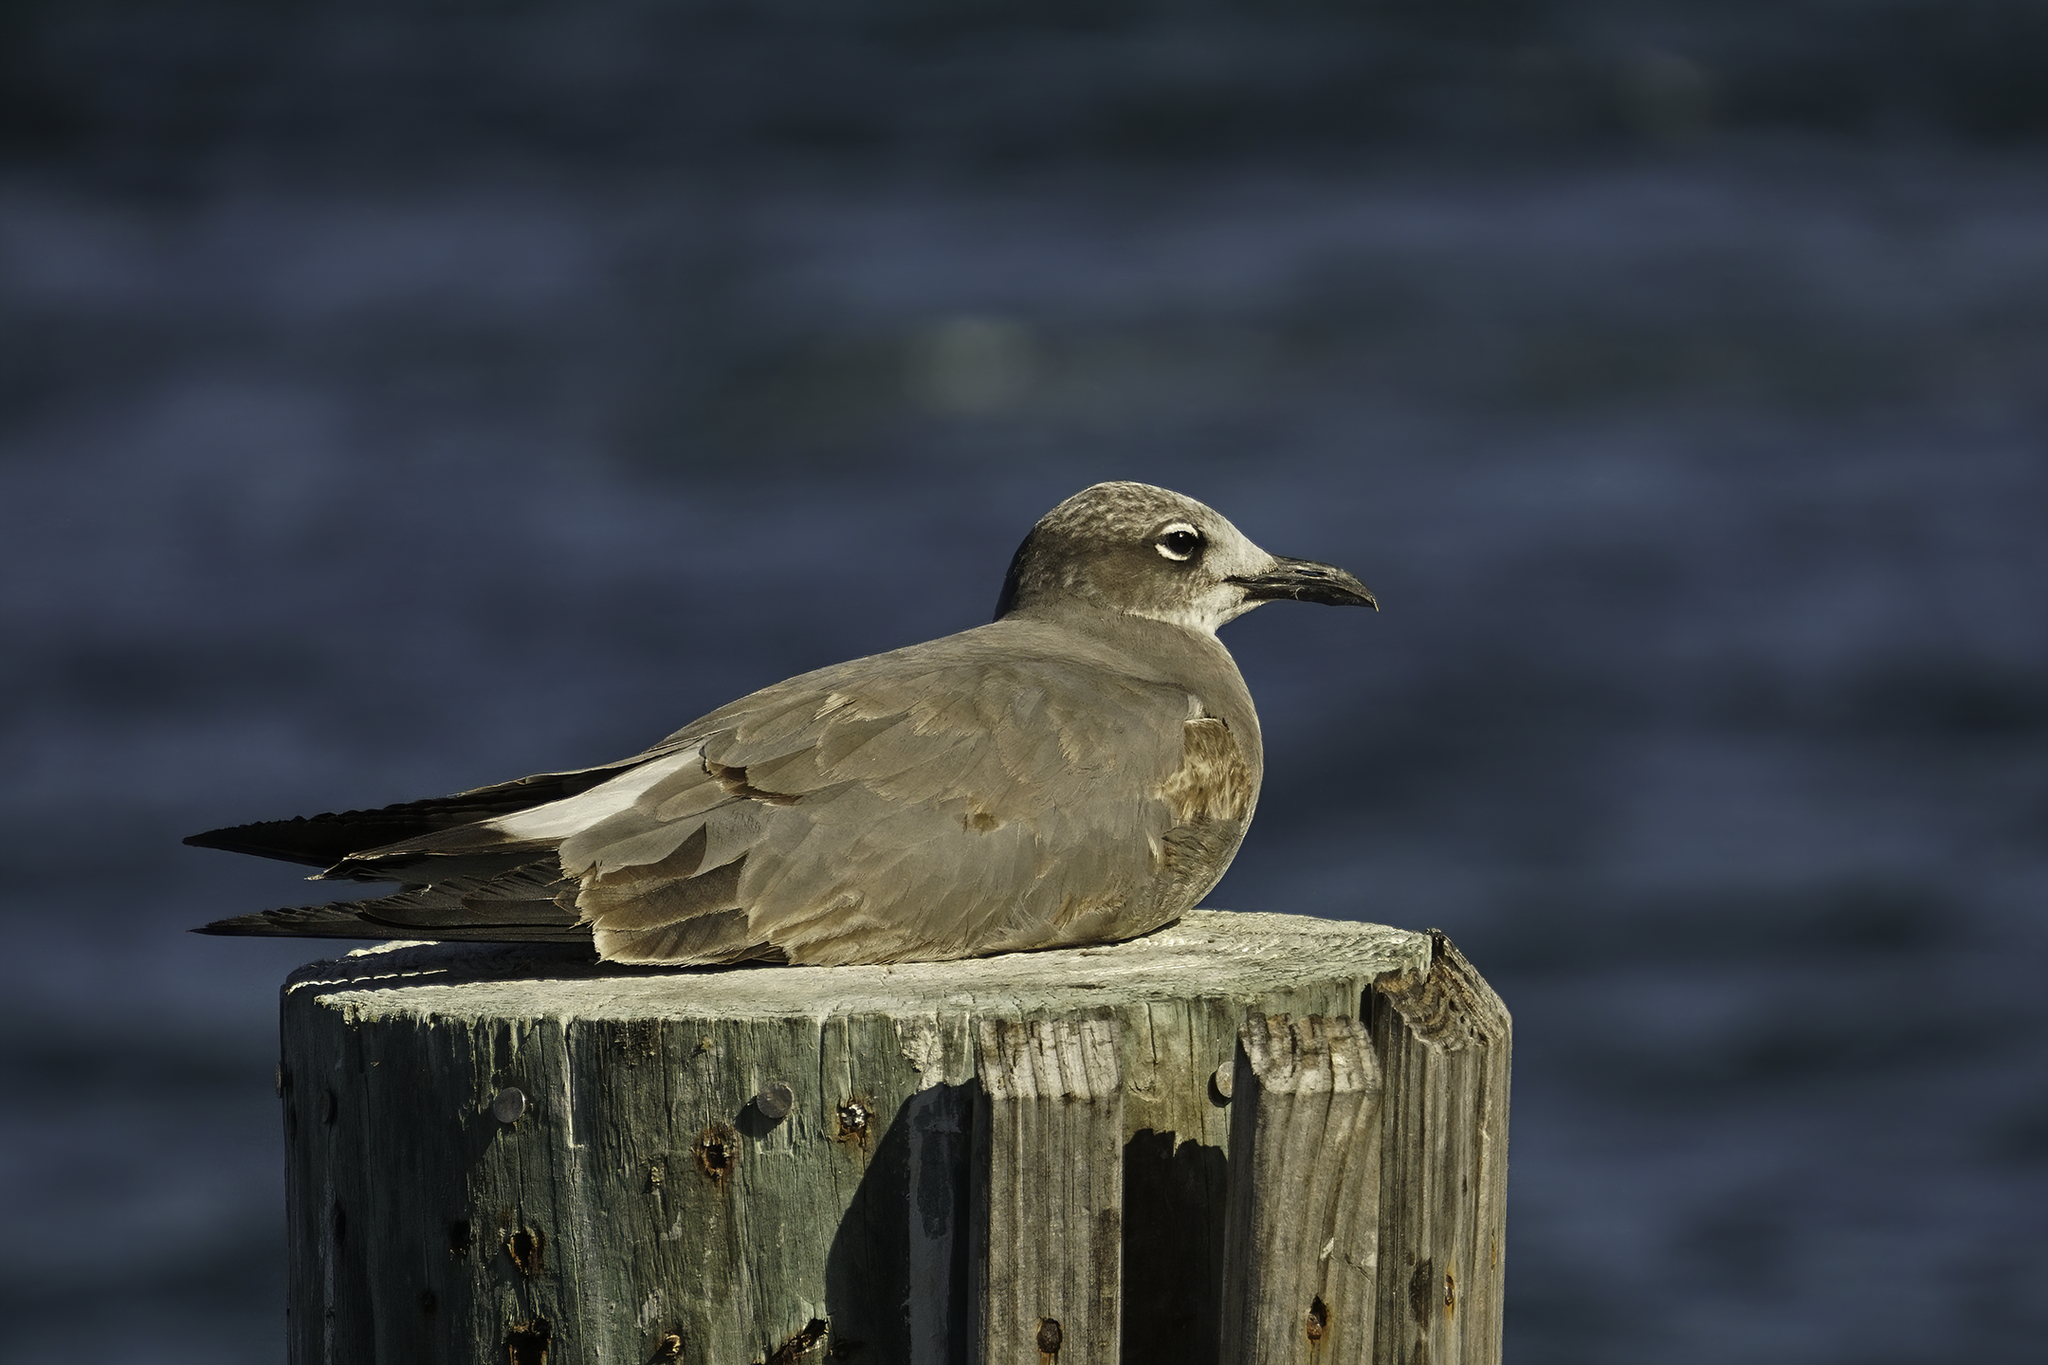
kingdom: Animalia
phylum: Chordata
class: Aves
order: Charadriiformes
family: Laridae
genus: Leucophaeus
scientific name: Leucophaeus atricilla
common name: Laughing gull
